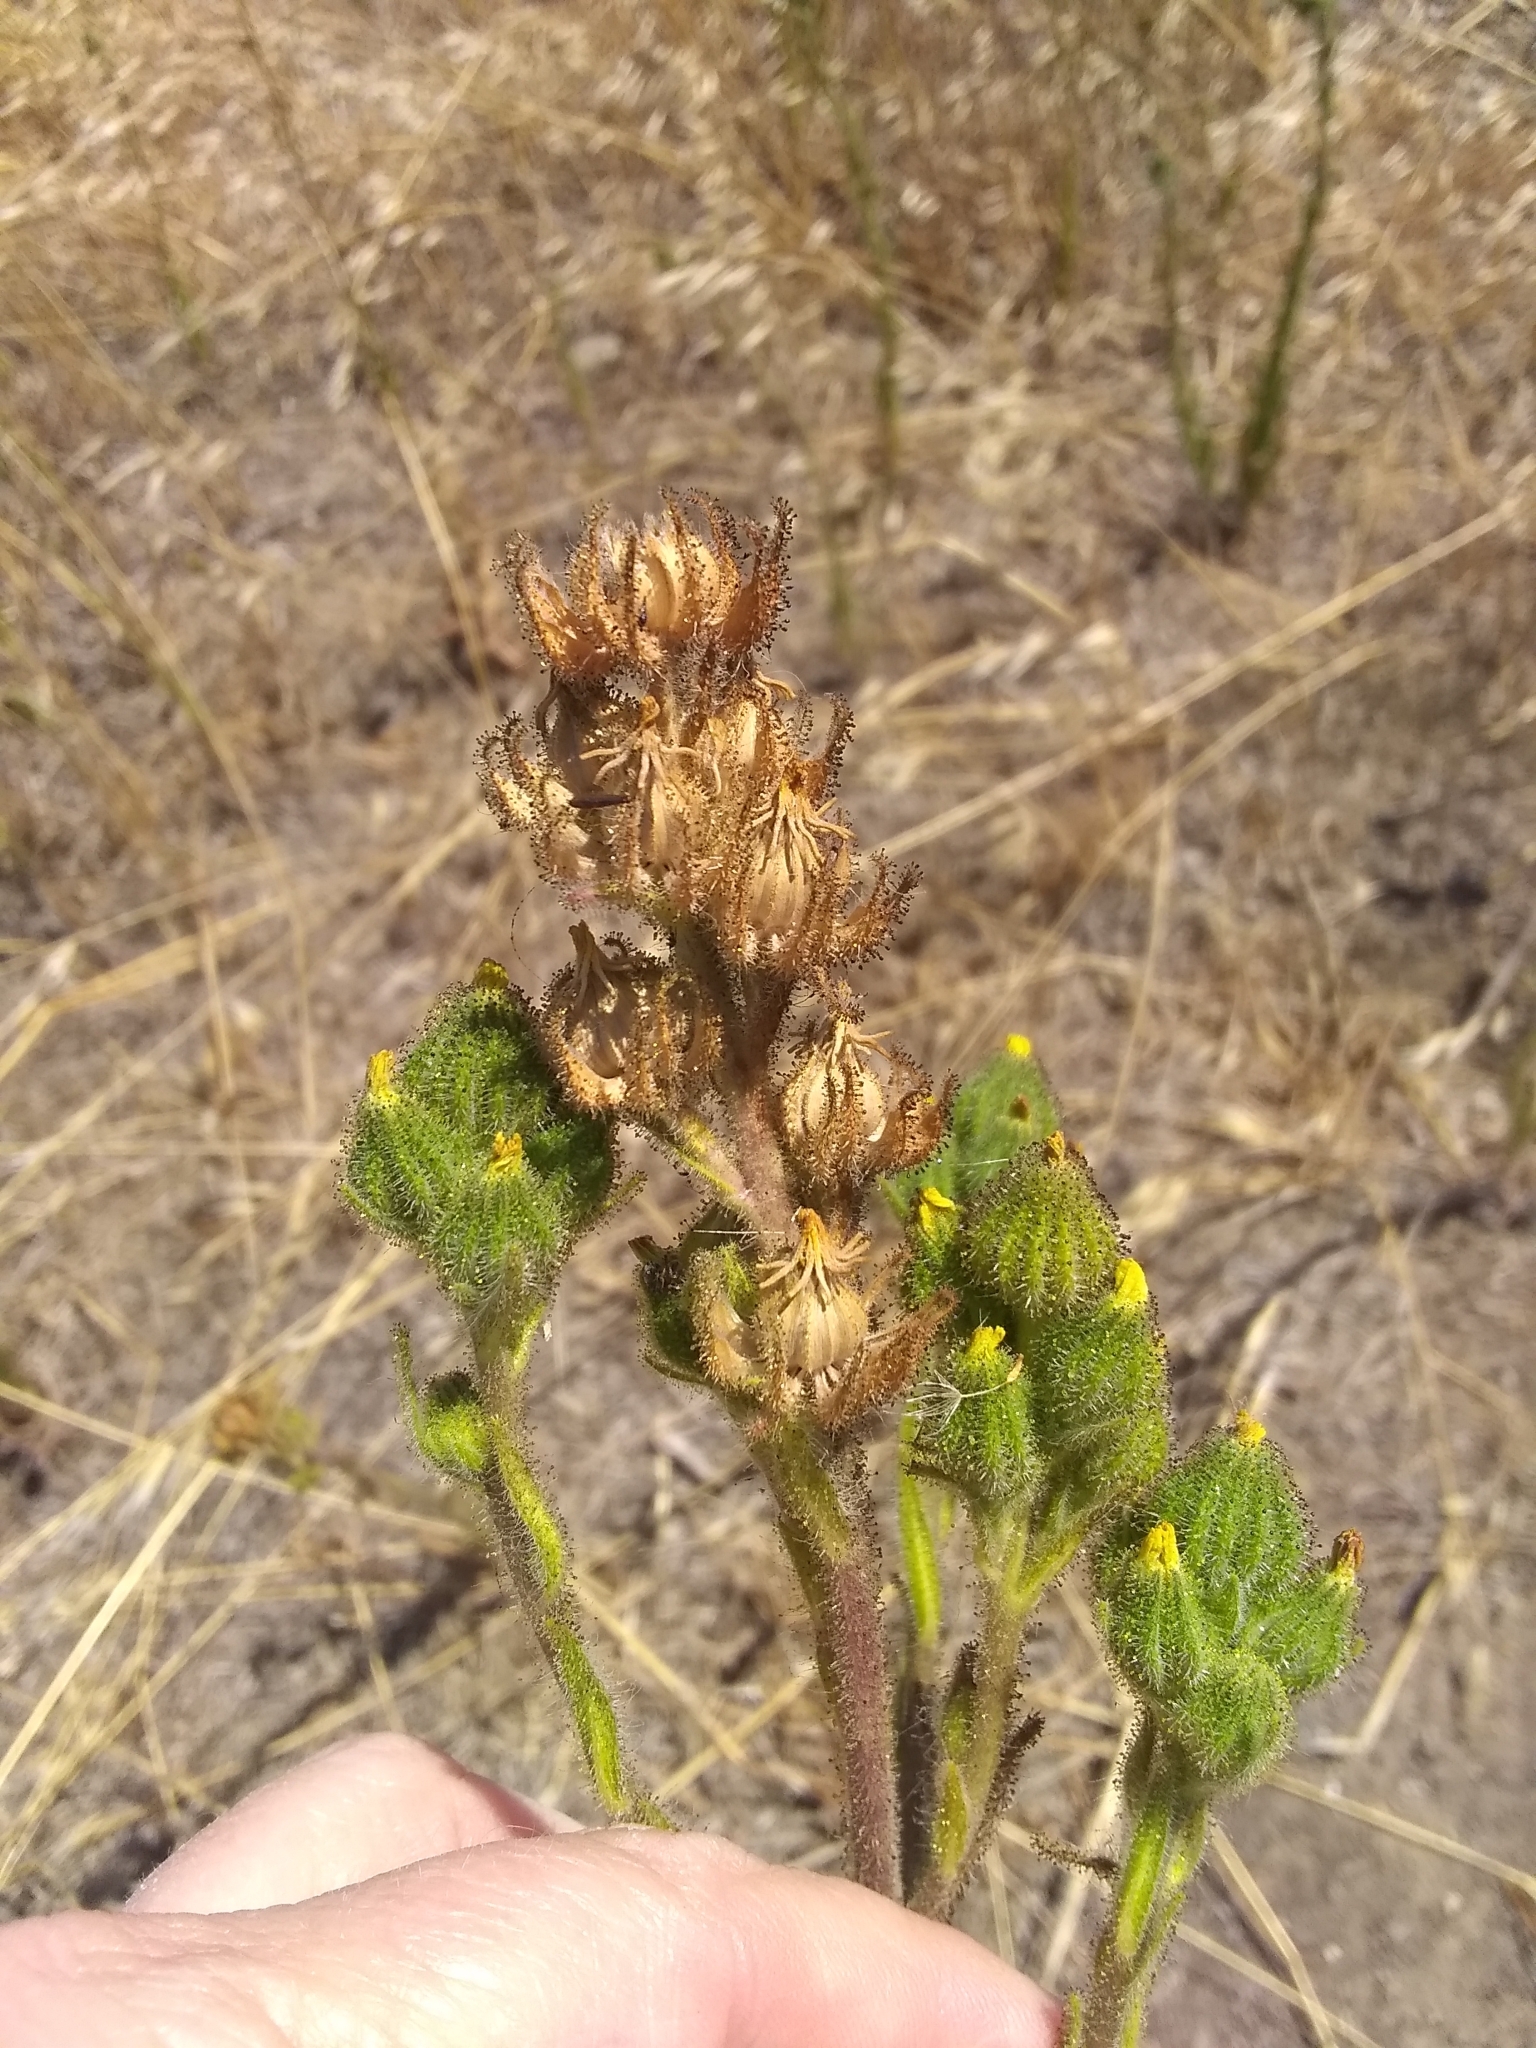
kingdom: Plantae
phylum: Tracheophyta
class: Magnoliopsida
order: Asterales
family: Asteraceae
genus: Madia
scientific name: Madia sativa
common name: Coast tarweed
